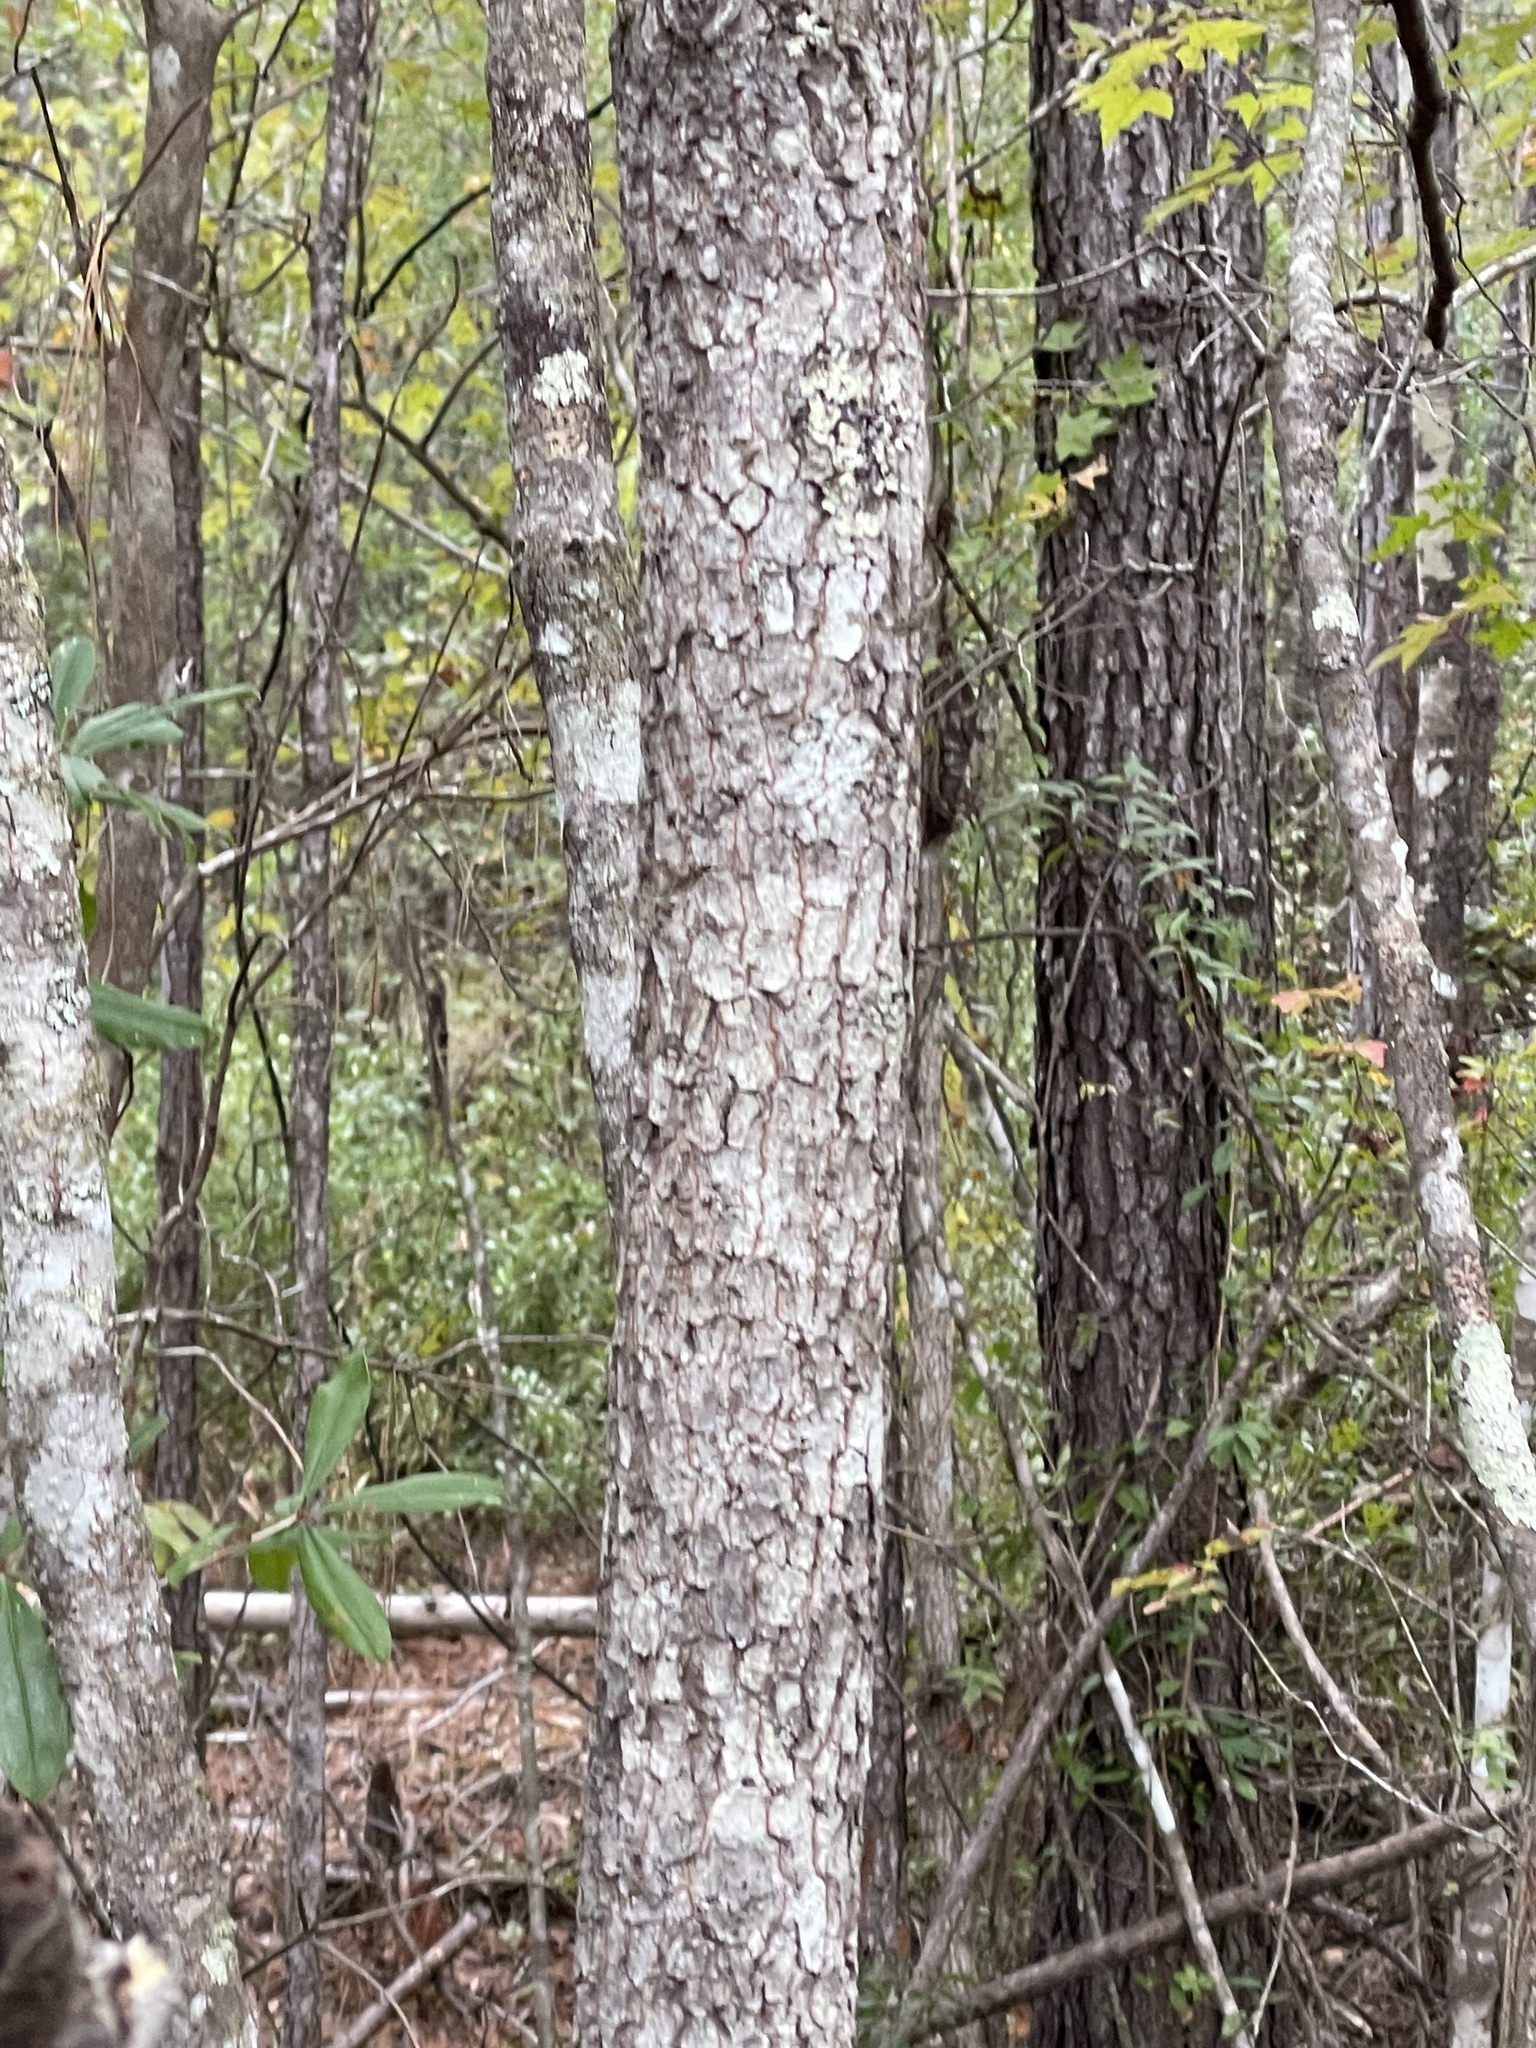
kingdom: Plantae
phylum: Tracheophyta
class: Magnoliopsida
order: Ericales
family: Ebenaceae
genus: Diospyros
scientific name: Diospyros virginiana
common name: Persimmon
